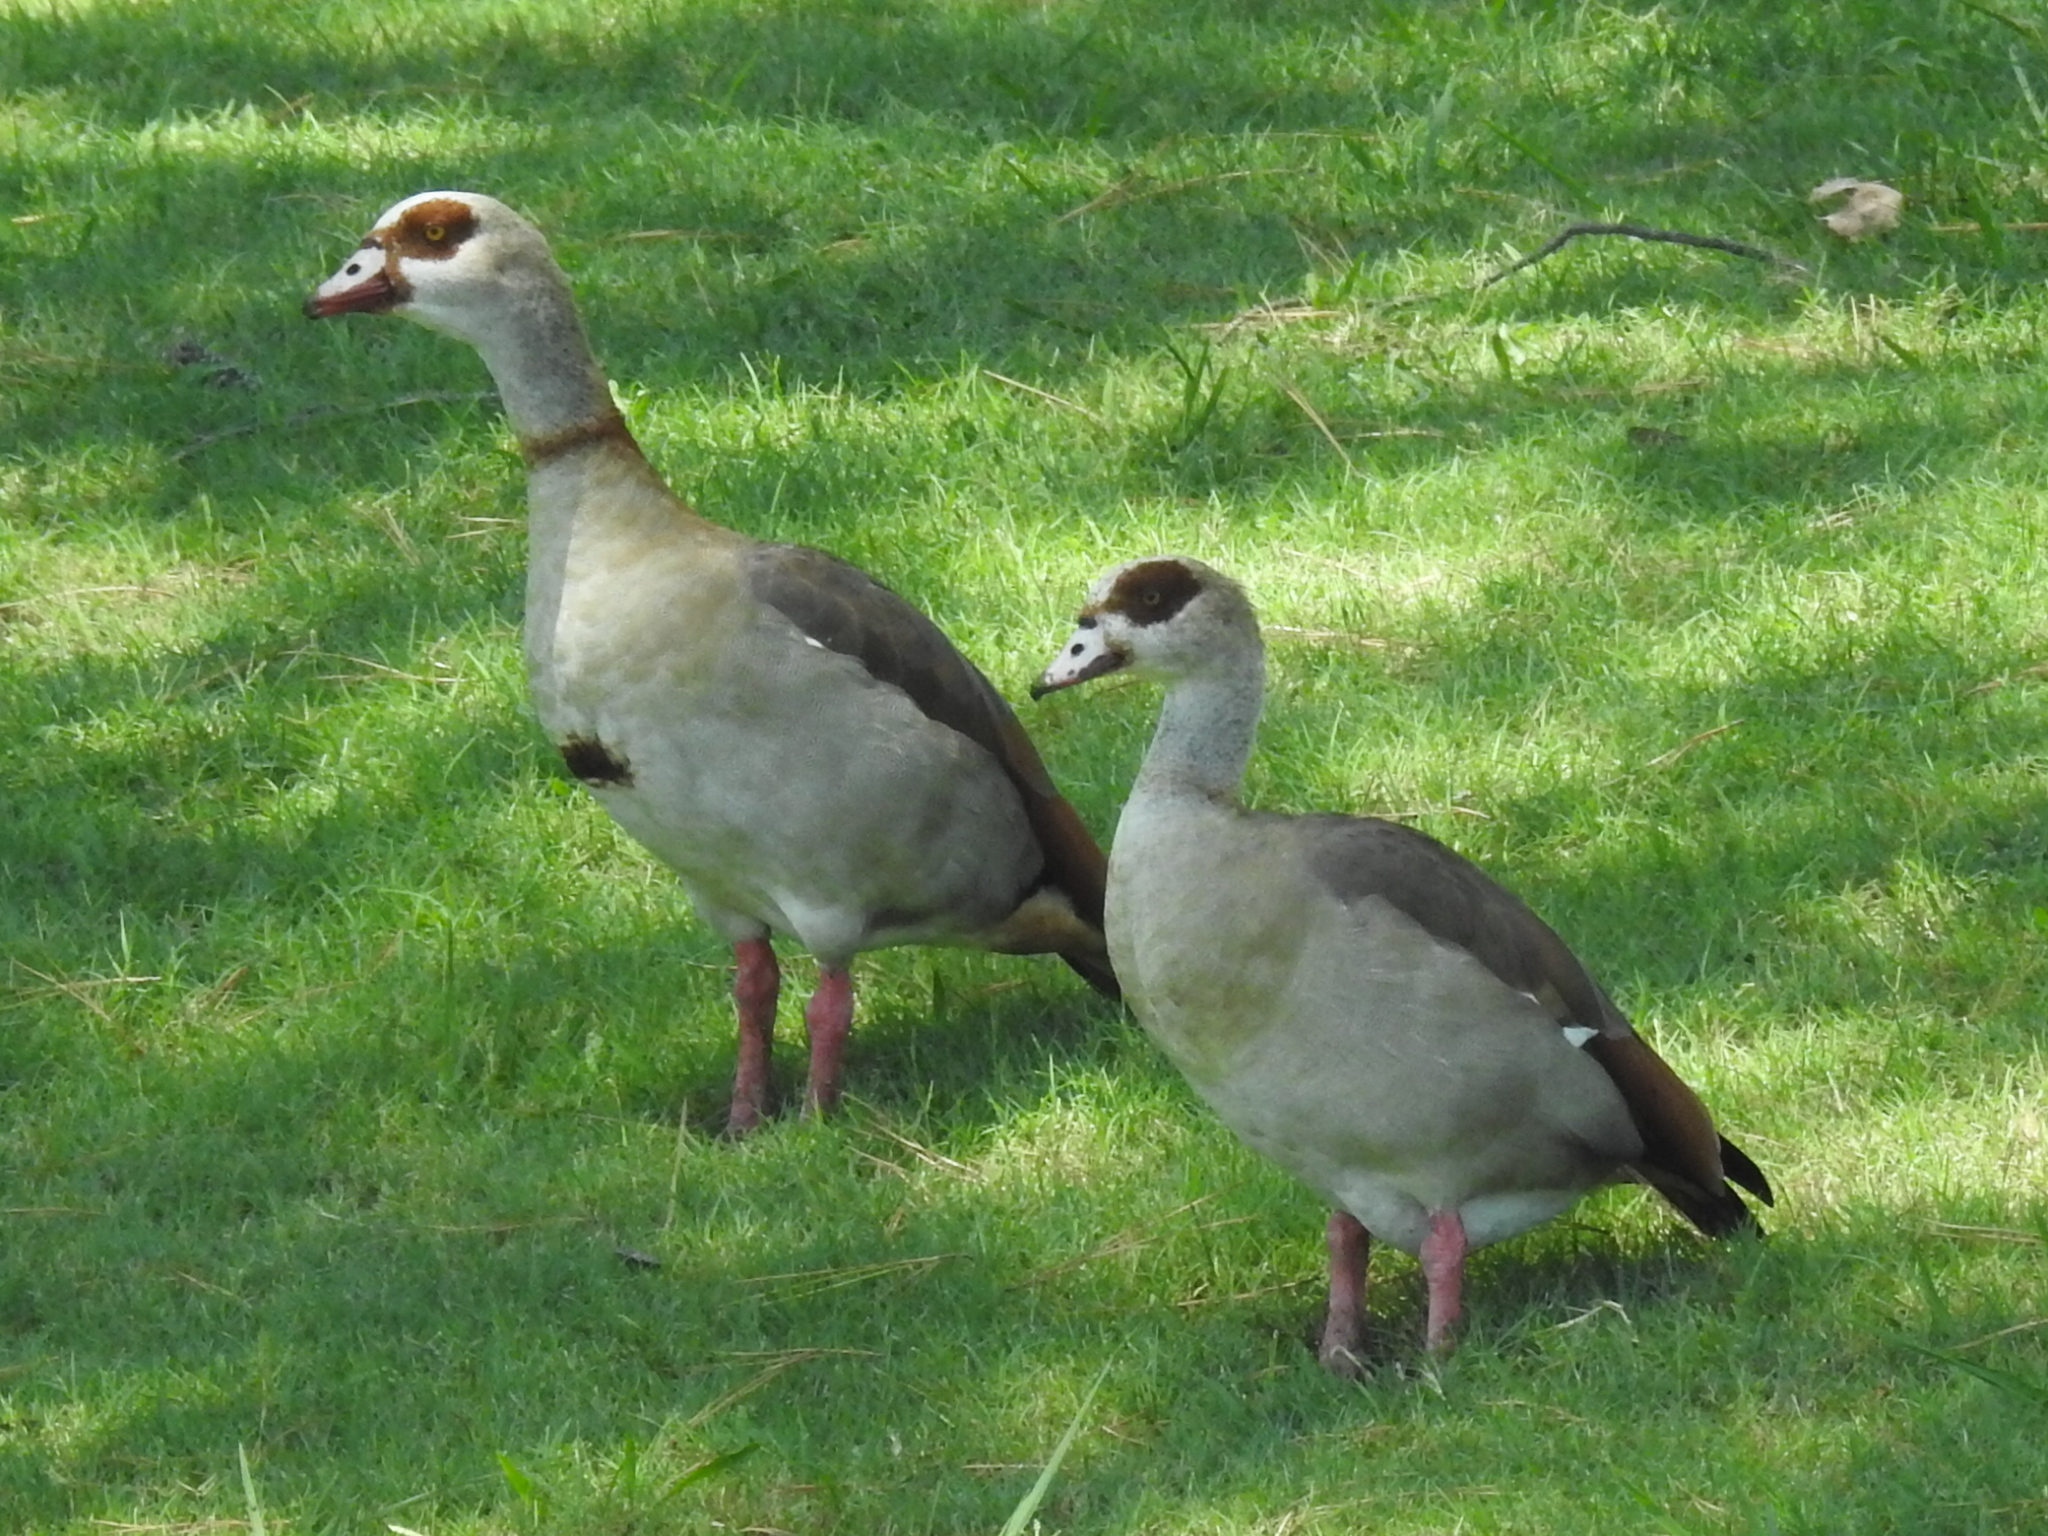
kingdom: Animalia
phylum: Chordata
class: Aves
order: Anseriformes
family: Anatidae
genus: Alopochen
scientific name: Alopochen aegyptiaca
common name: Egyptian goose
